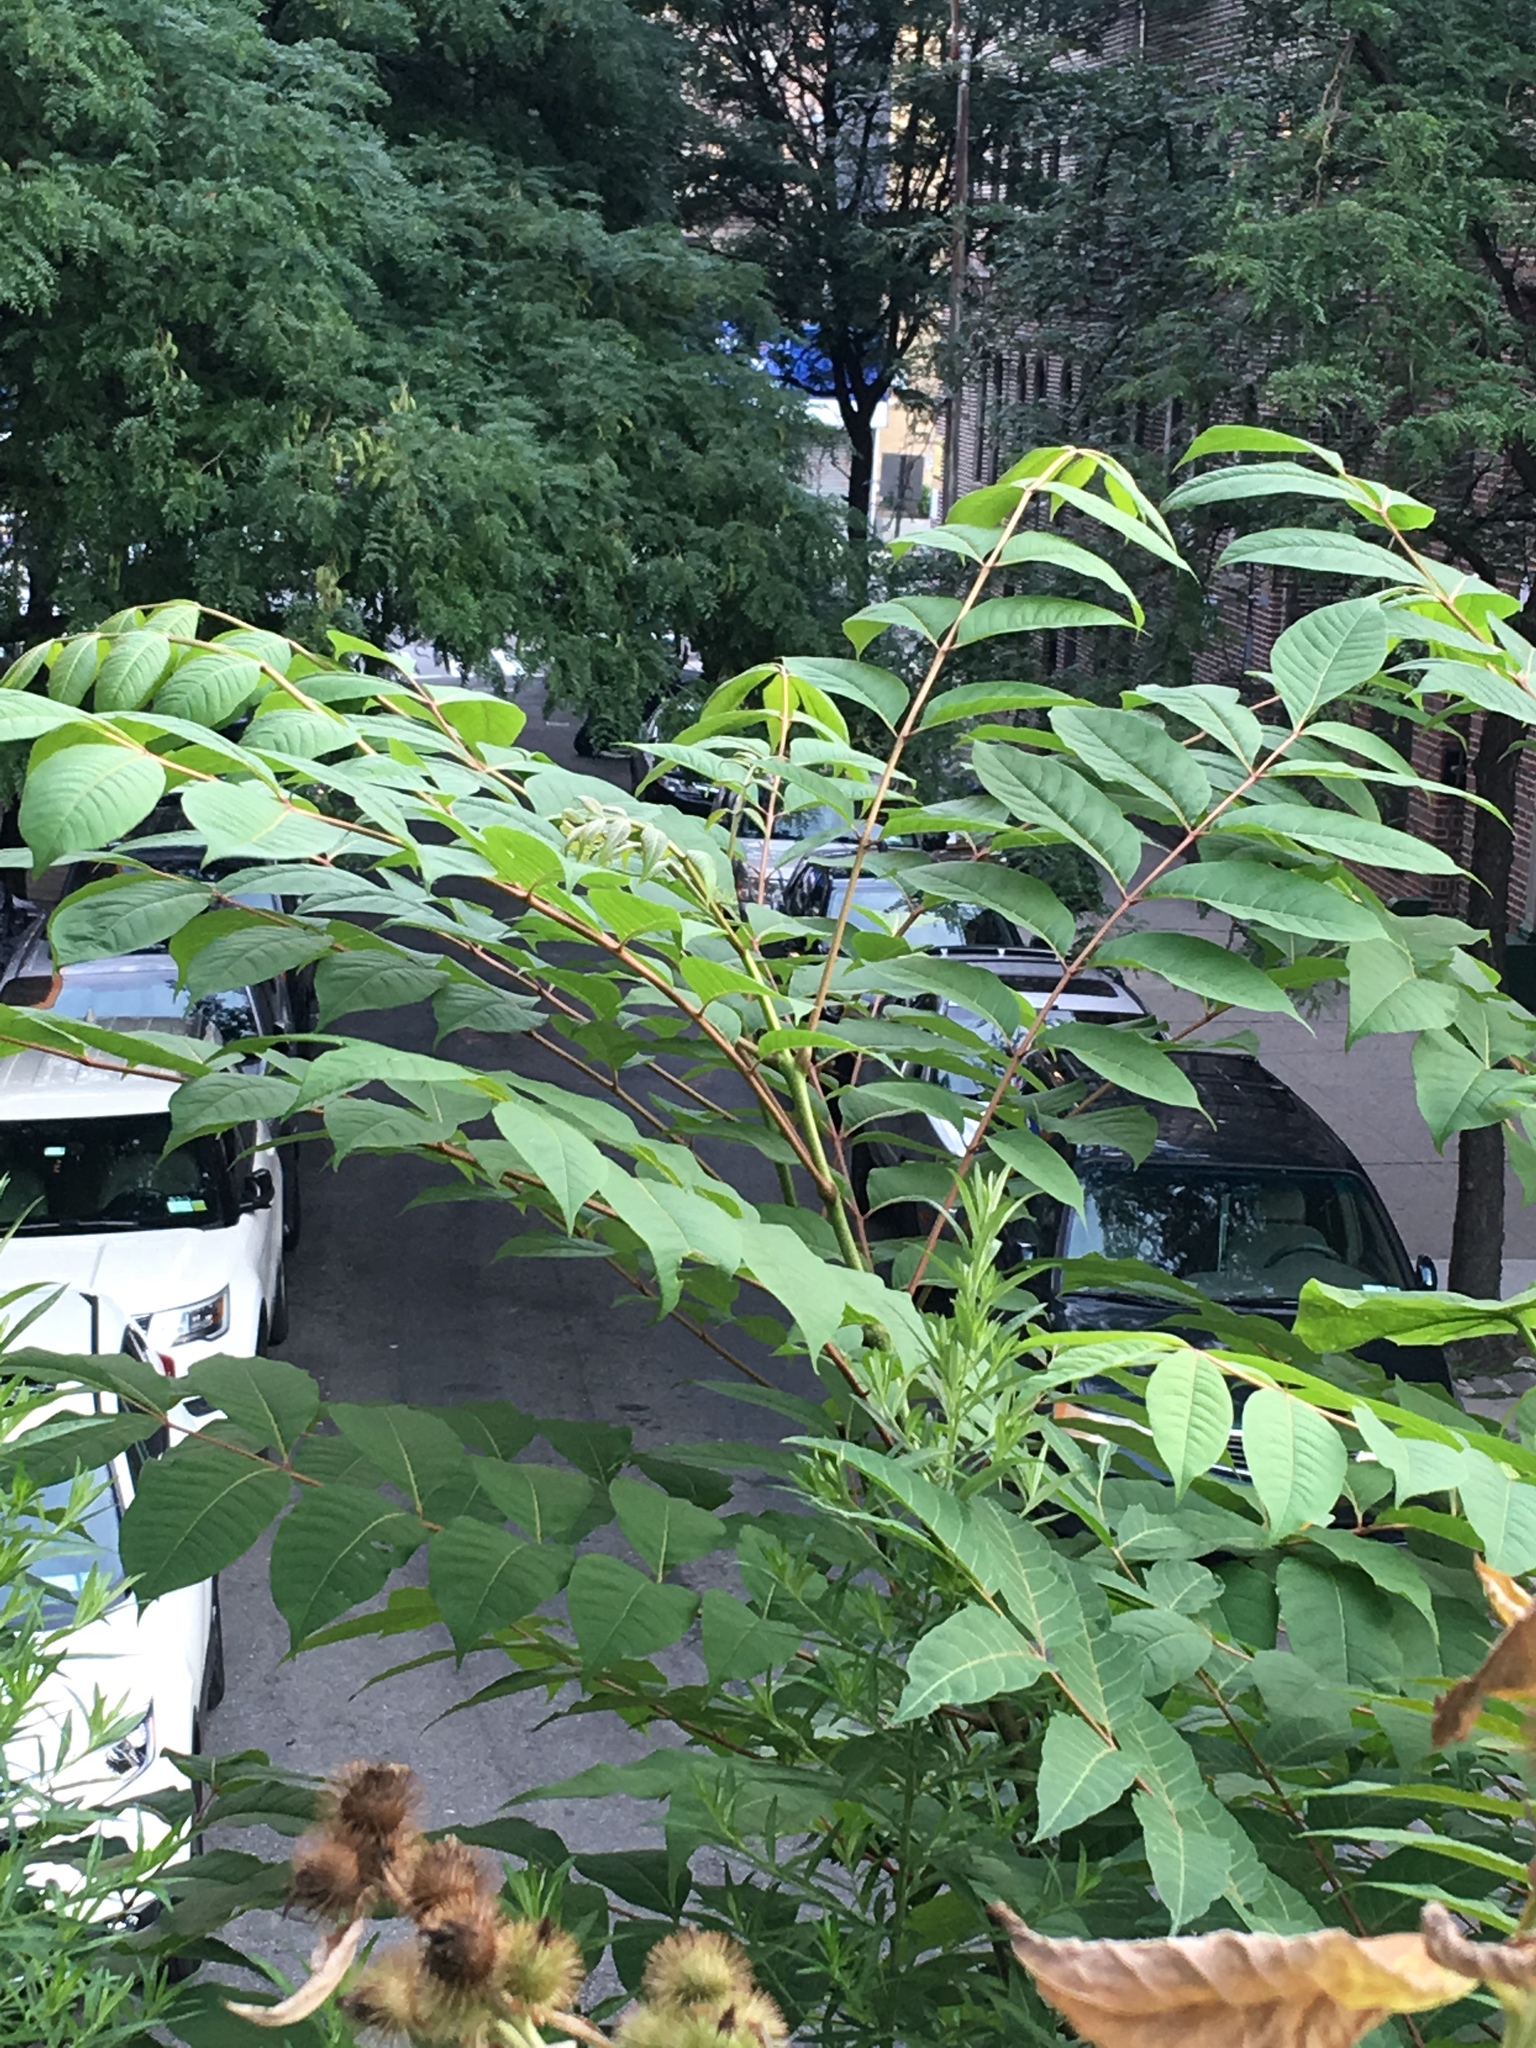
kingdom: Plantae
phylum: Tracheophyta
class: Magnoliopsida
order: Sapindales
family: Simaroubaceae
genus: Ailanthus
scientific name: Ailanthus altissima
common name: Tree-of-heaven
